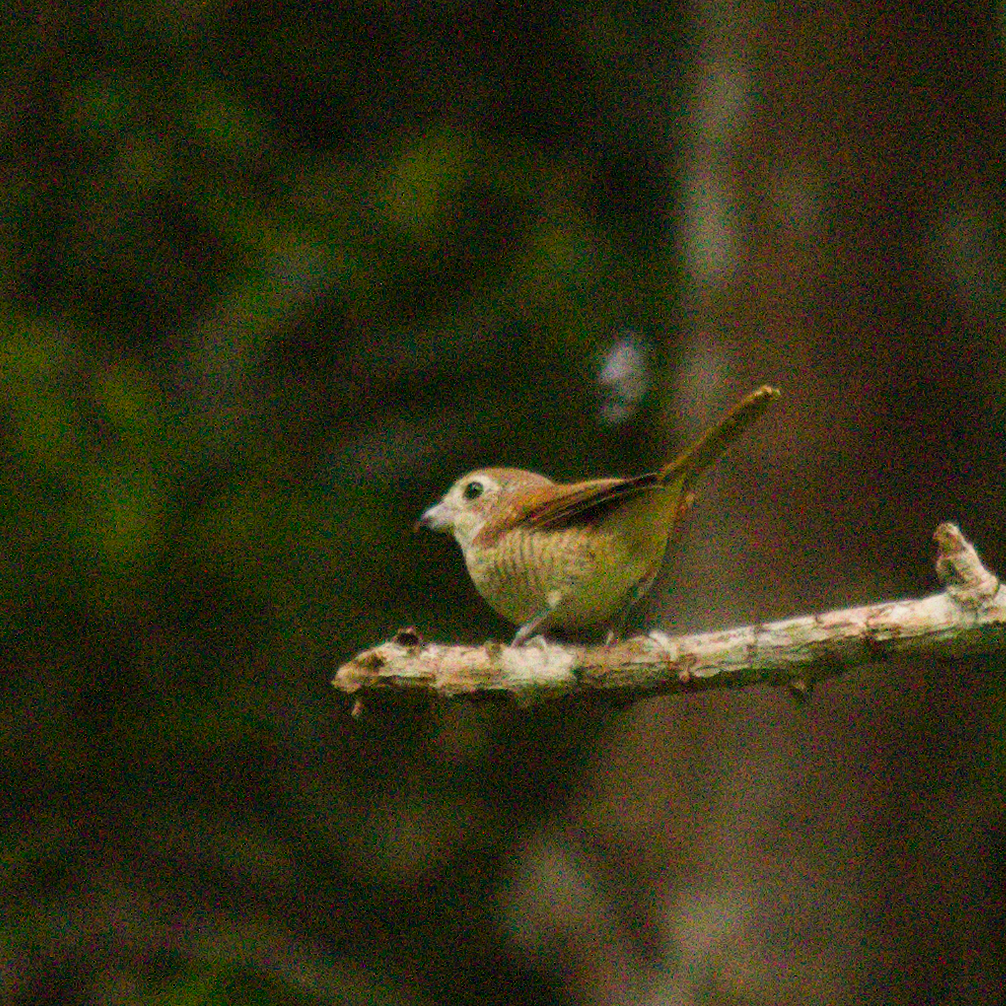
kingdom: Animalia
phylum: Chordata
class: Aves
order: Passeriformes
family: Laniidae
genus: Lanius
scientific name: Lanius tigrinus
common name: Tiger shrike
